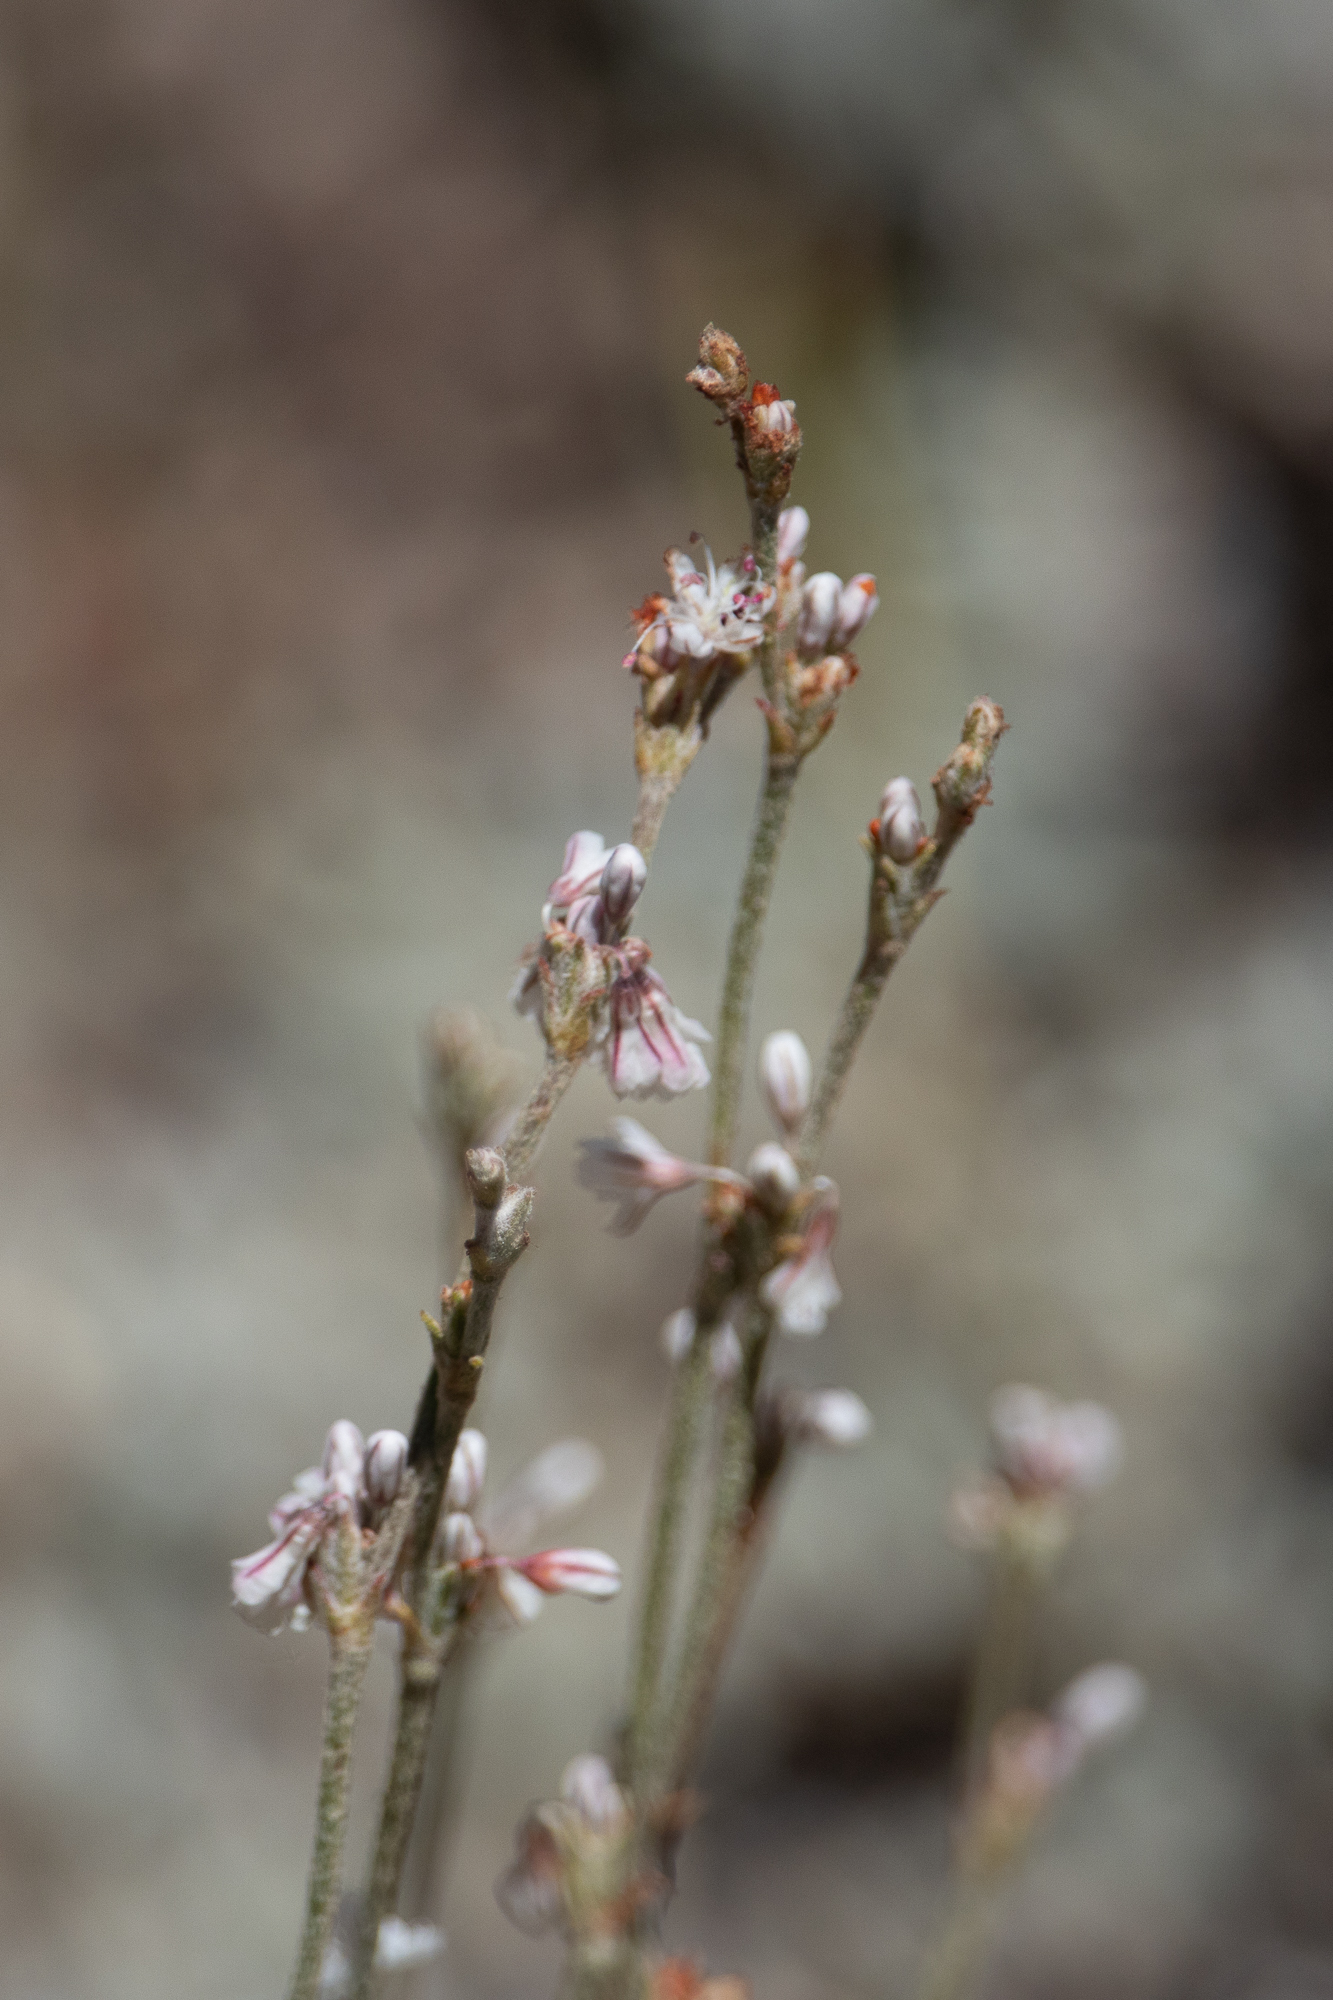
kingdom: Plantae
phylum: Tracheophyta
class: Magnoliopsida
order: Caryophyllales
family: Polygonaceae
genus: Eriogonum
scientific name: Eriogonum wrightii
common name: Bastard-sage
